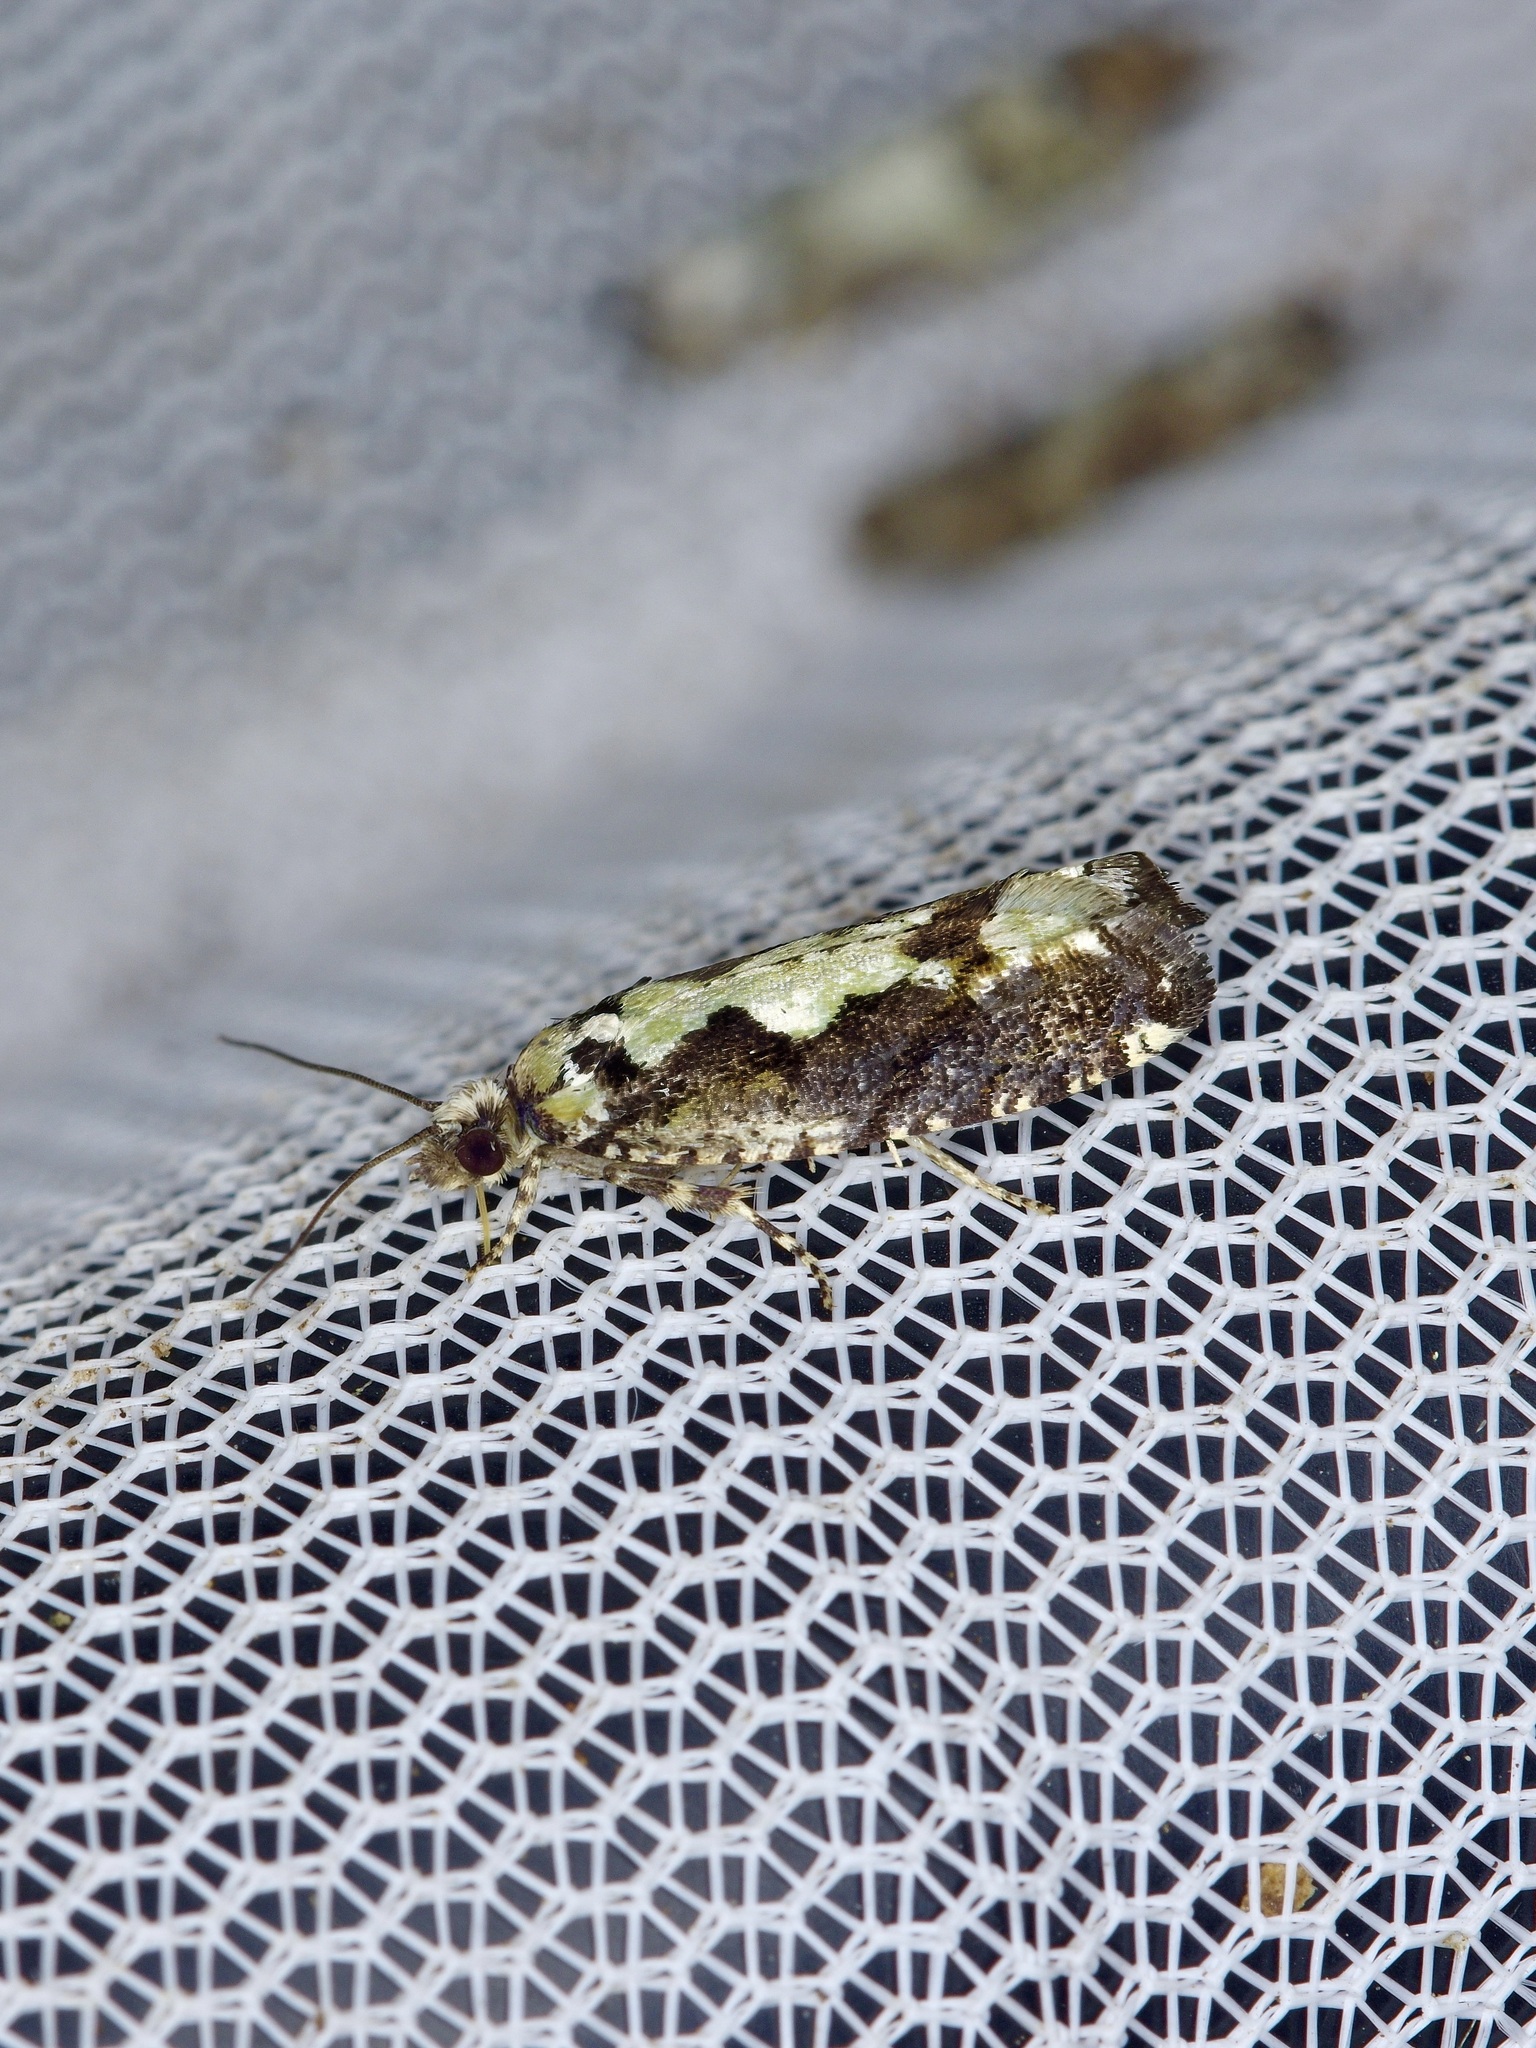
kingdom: Animalia
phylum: Arthropoda
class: Insecta
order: Lepidoptera
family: Tortricidae
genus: Chimoptesis
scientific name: Chimoptesis pennsylvaniana
